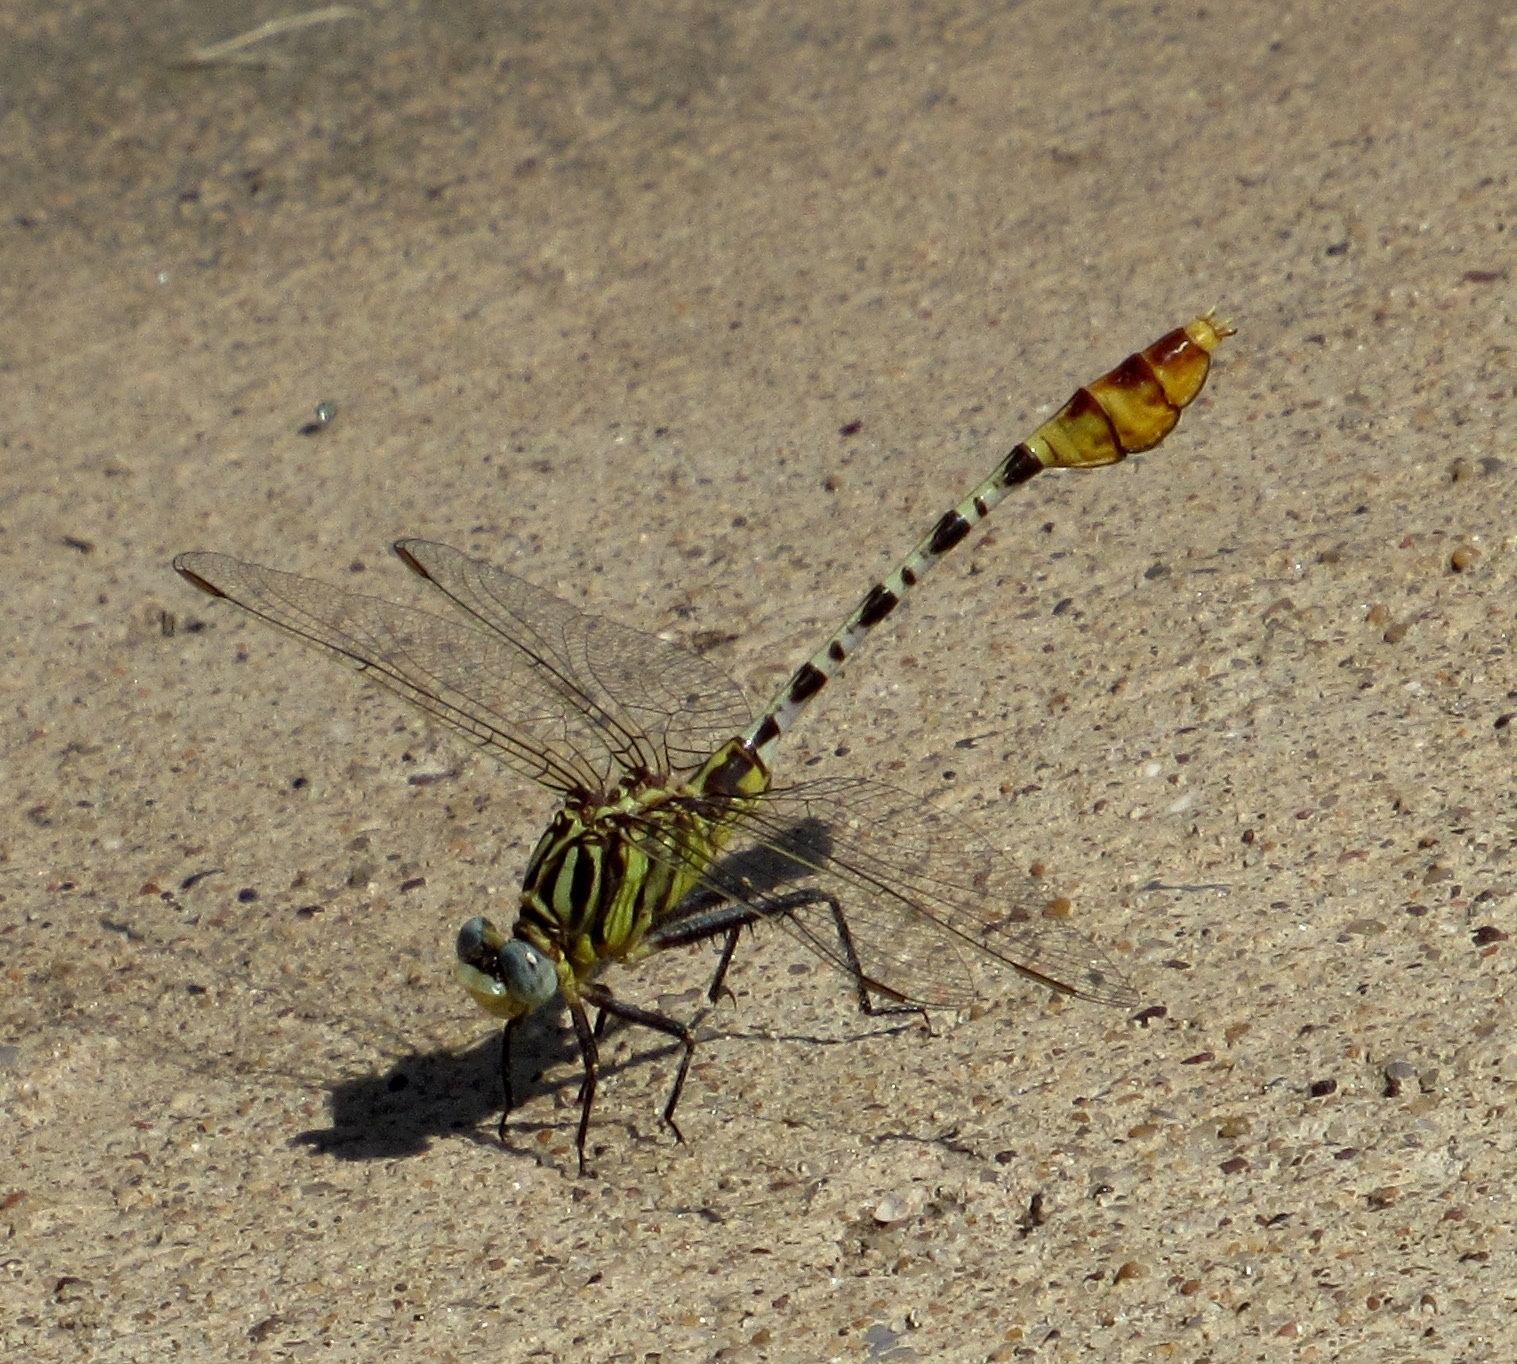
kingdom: Animalia
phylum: Arthropoda
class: Insecta
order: Odonata
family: Gomphidae
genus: Dromogomphus
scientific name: Dromogomphus spoliatus
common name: Flag-tailed spinyleg
